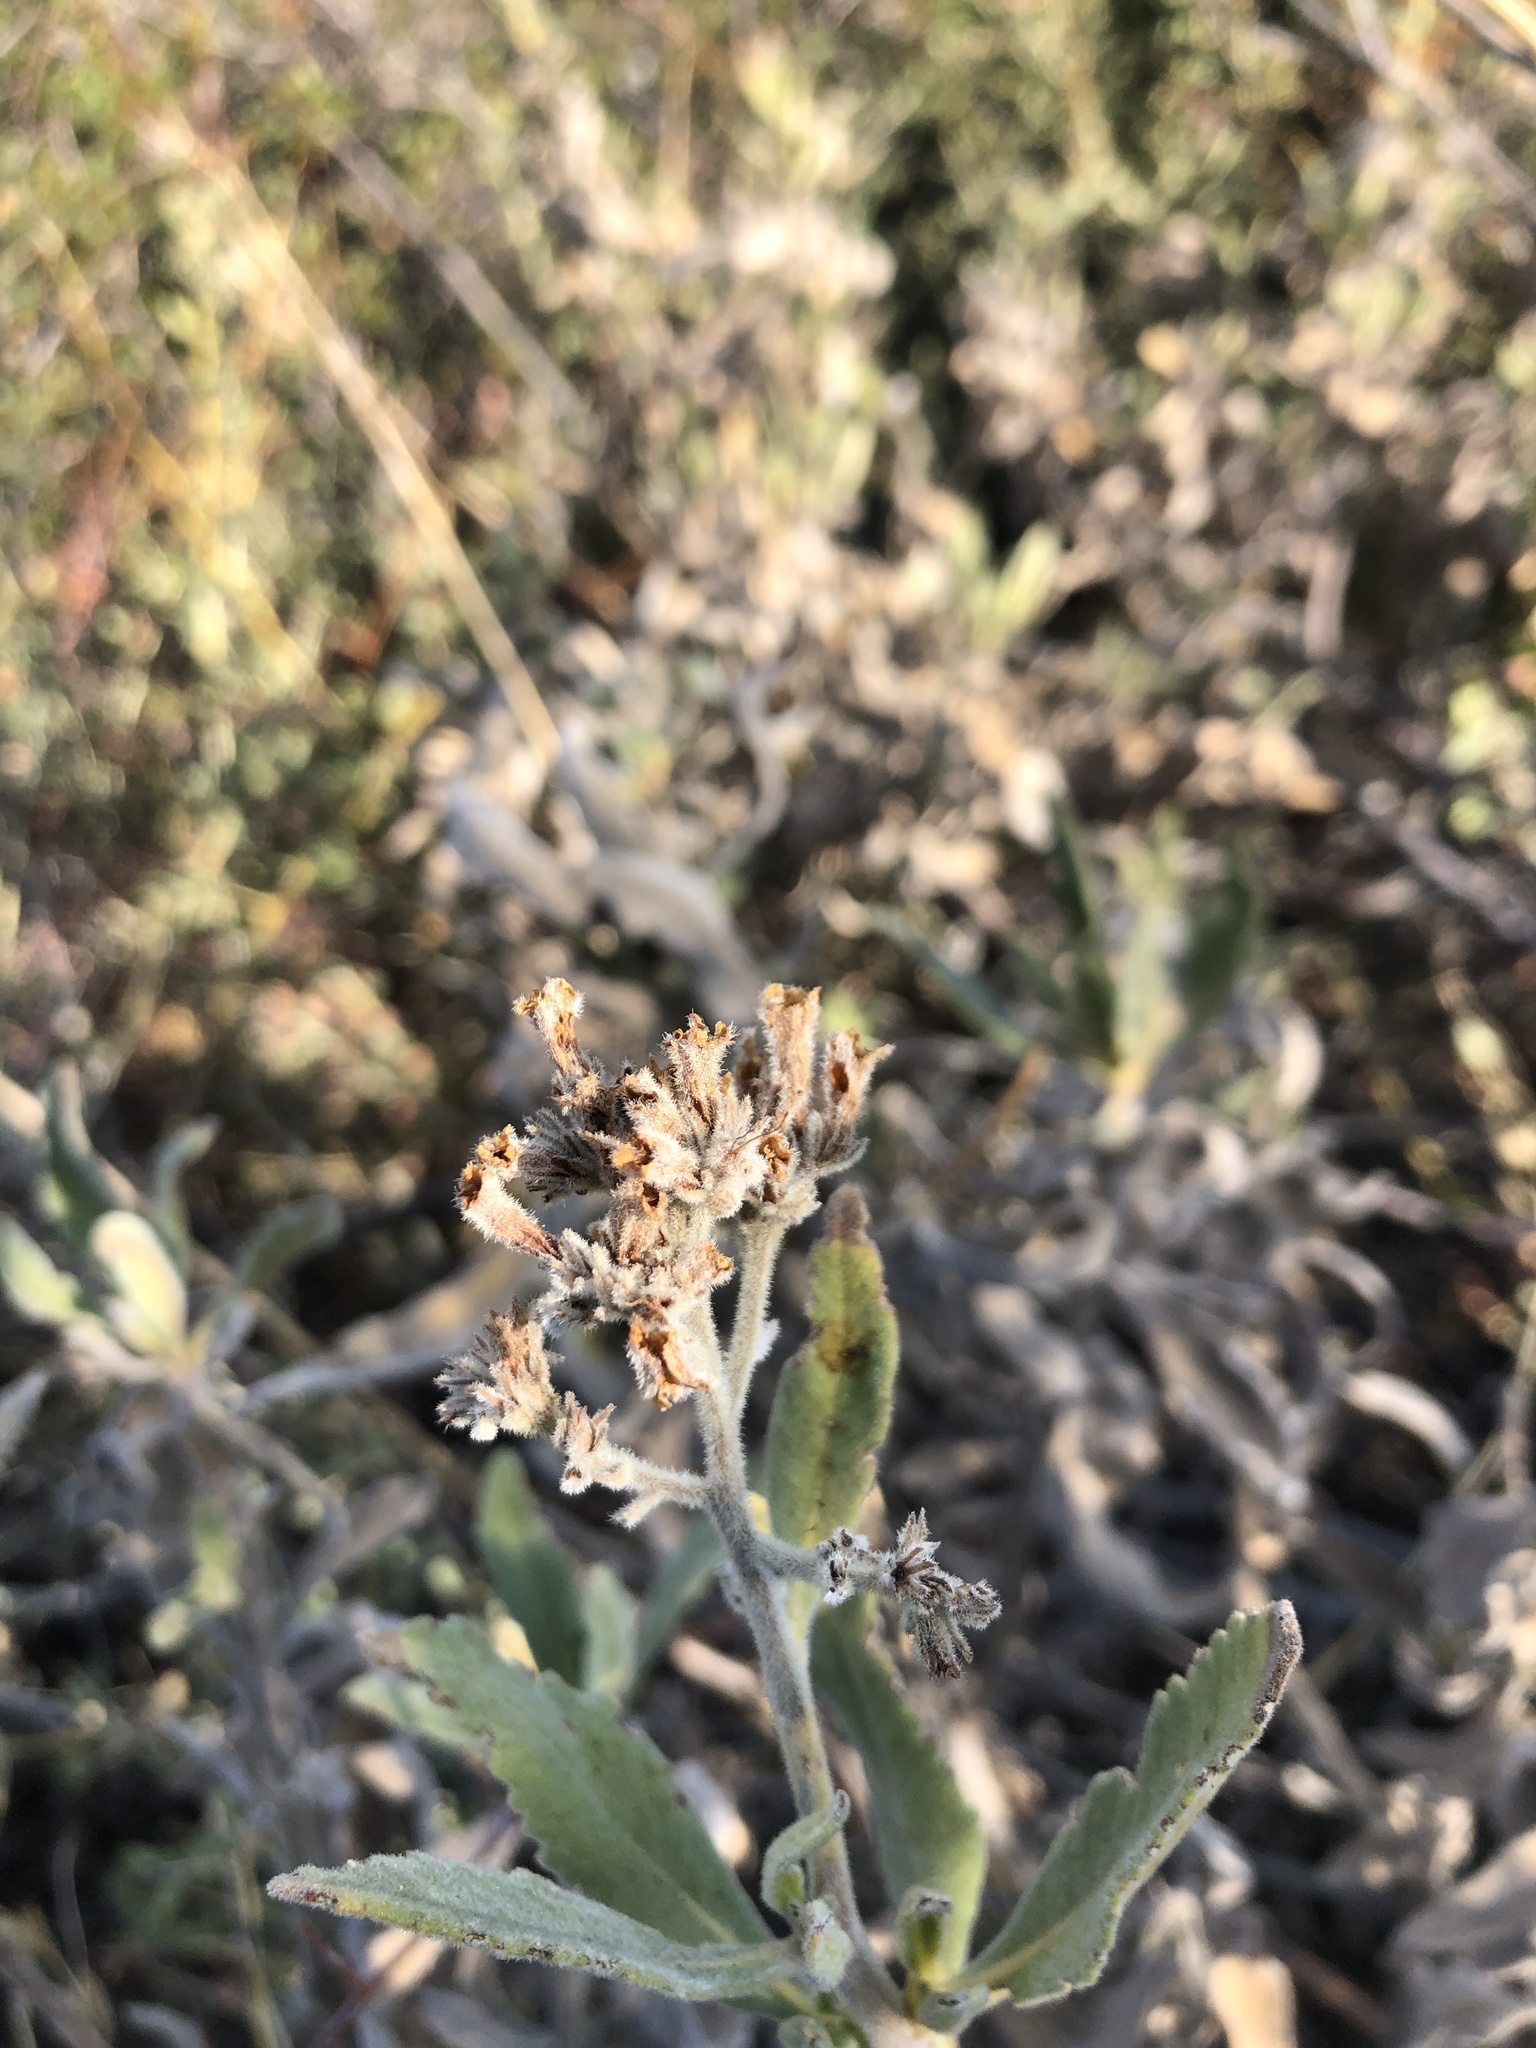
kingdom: Plantae
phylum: Tracheophyta
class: Magnoliopsida
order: Boraginales
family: Namaceae
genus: Eriodictyon
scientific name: Eriodictyon crassifolium
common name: Thick-leaf yerba-santa
